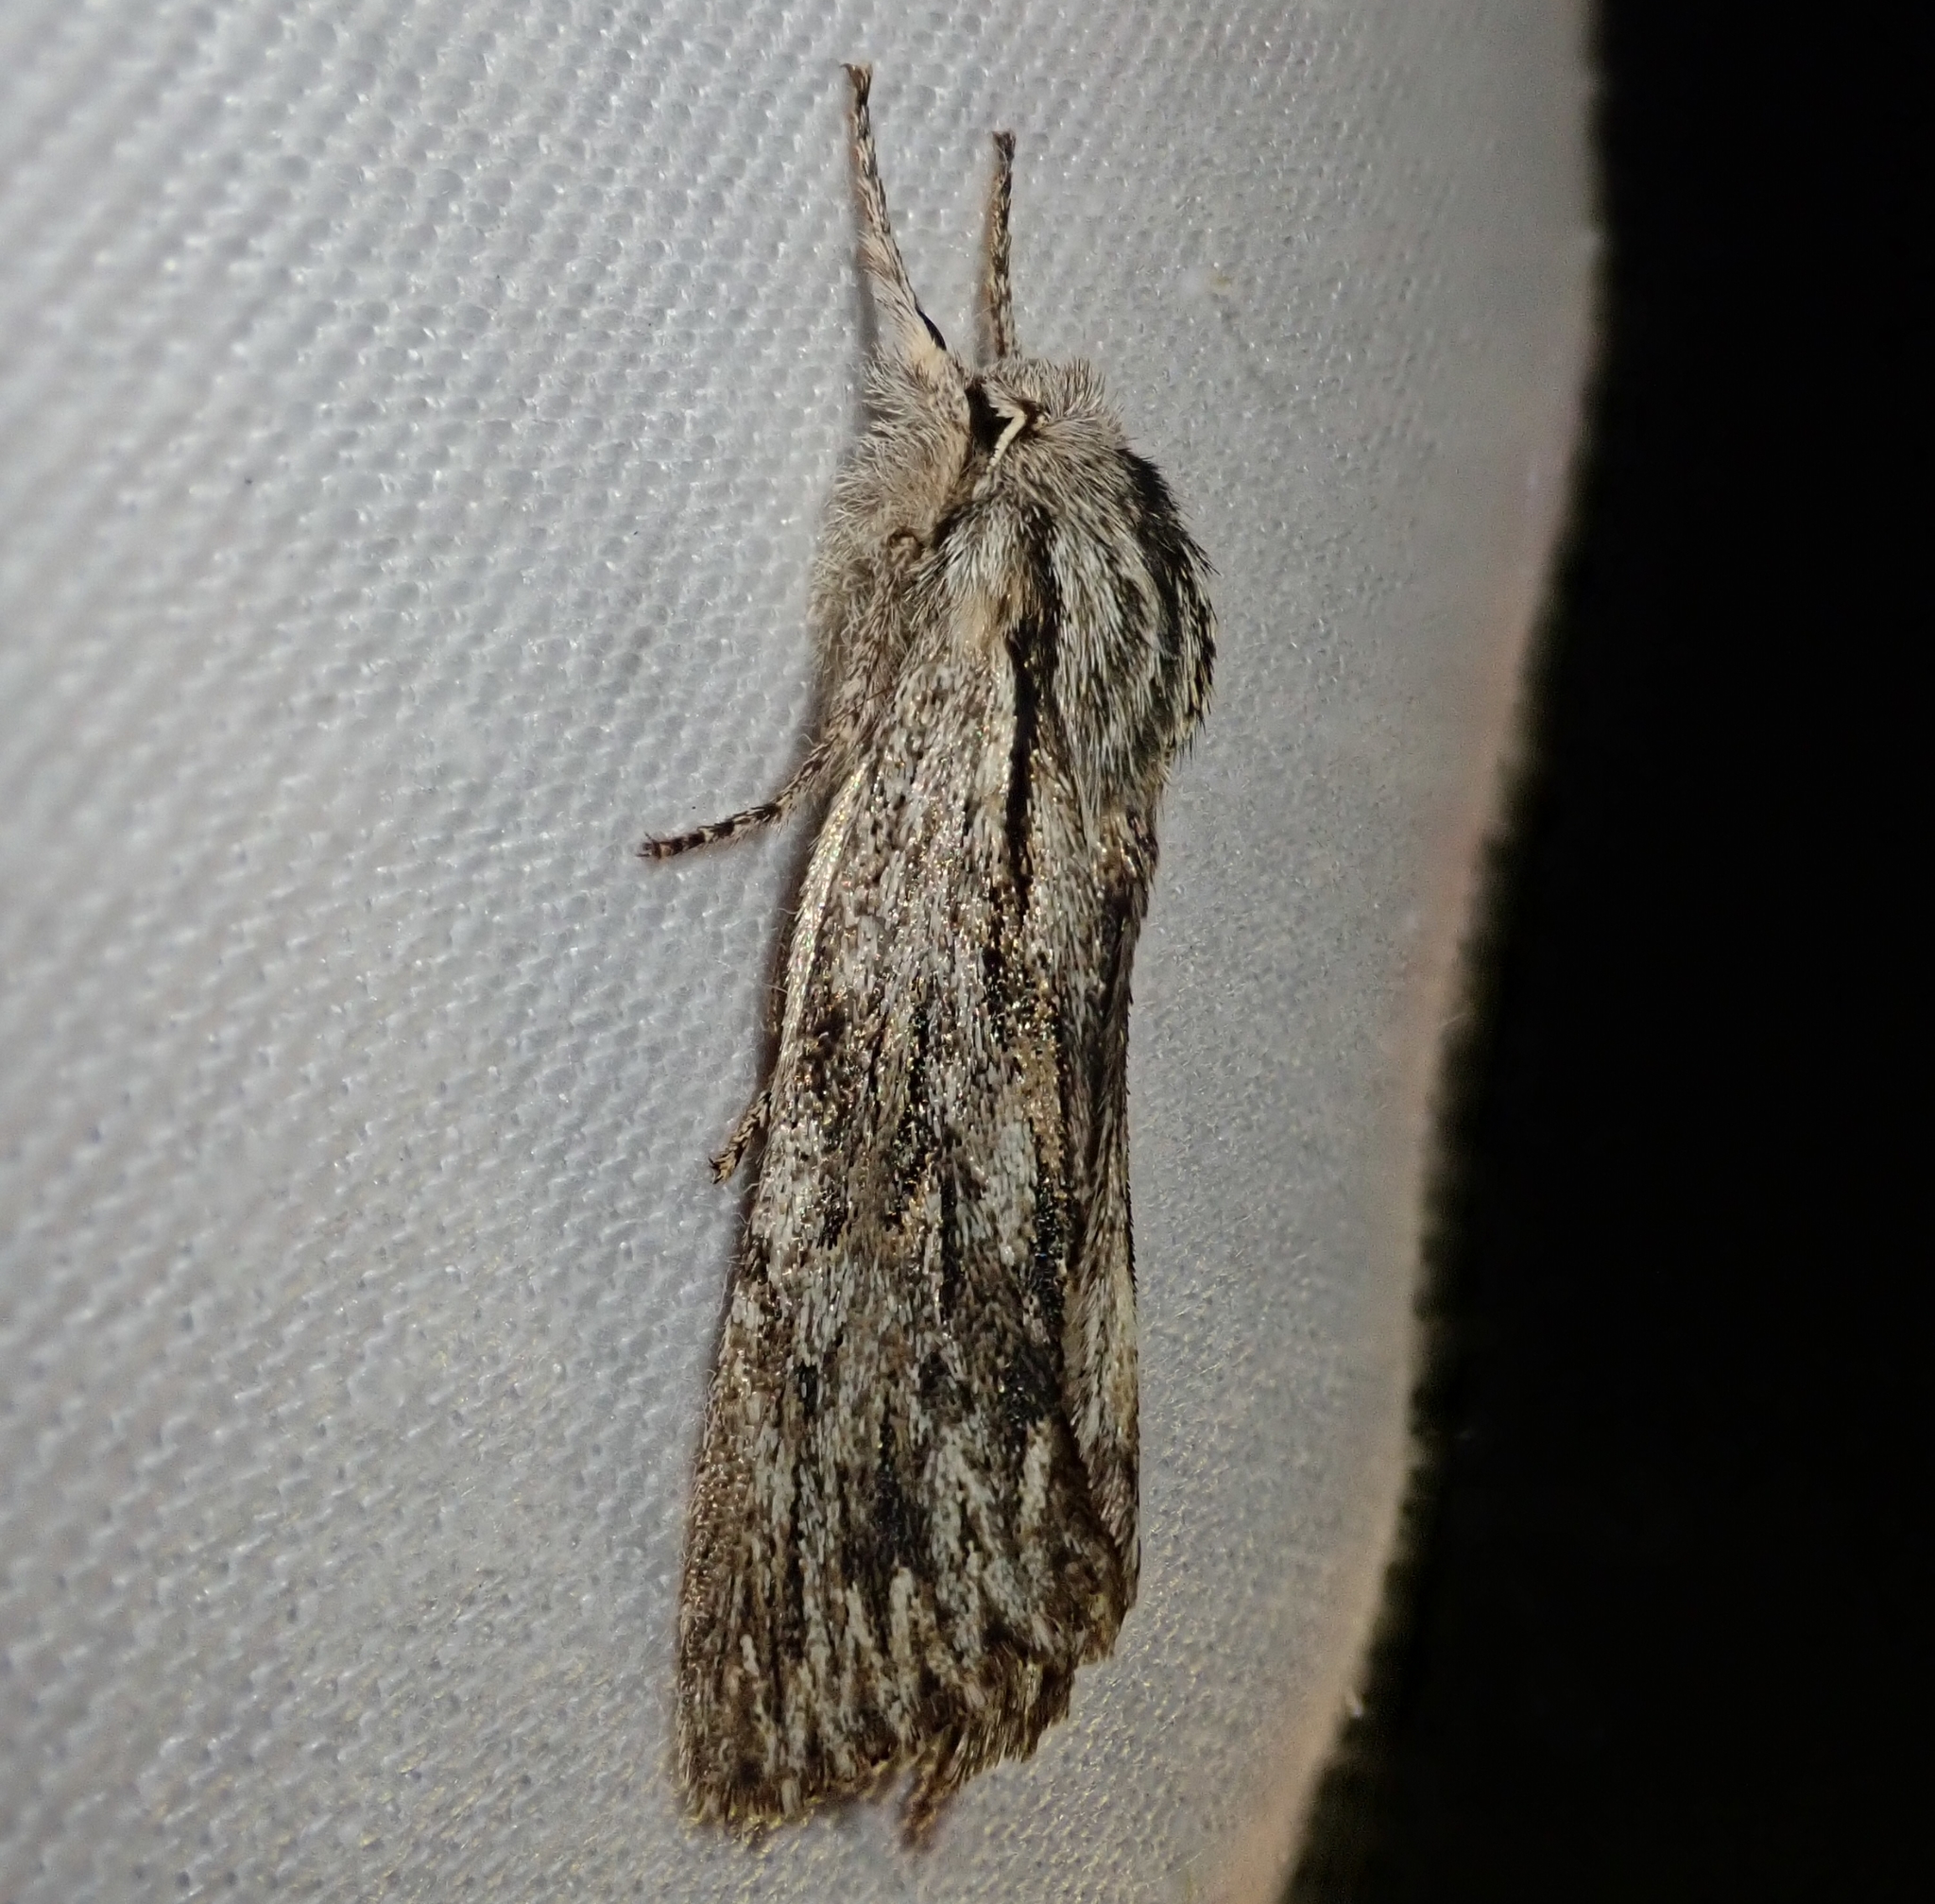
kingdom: Animalia
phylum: Arthropoda
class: Insecta
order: Lepidoptera
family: Noctuidae
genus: Asteroscopus
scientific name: Asteroscopus sphinx
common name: The sprawler
